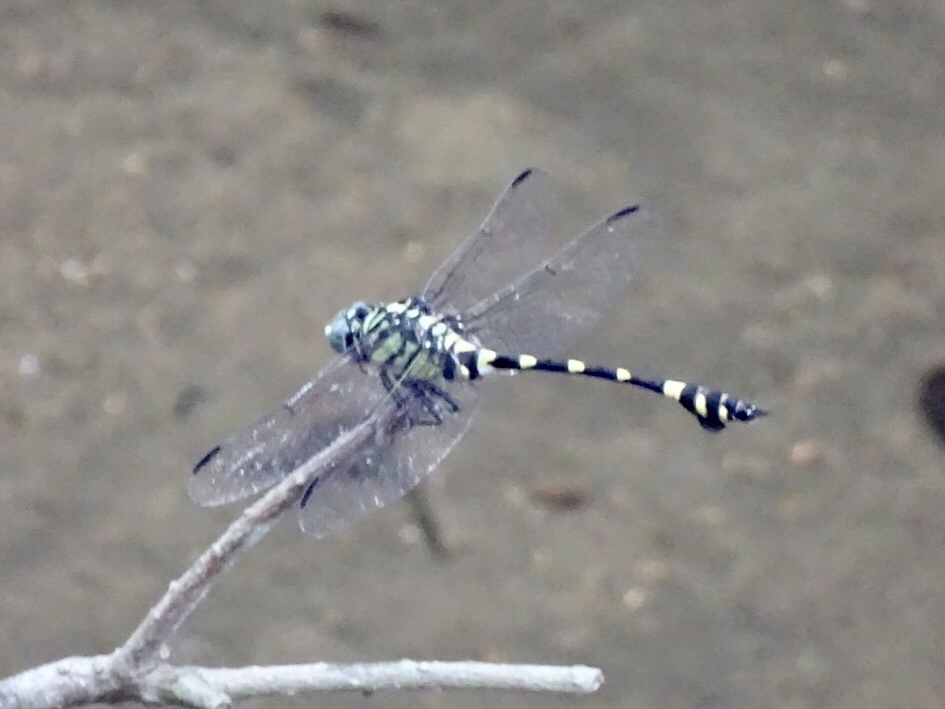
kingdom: Animalia
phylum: Arthropoda
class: Insecta
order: Odonata
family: Gomphidae
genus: Ictinogomphus
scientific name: Ictinogomphus pertinax
